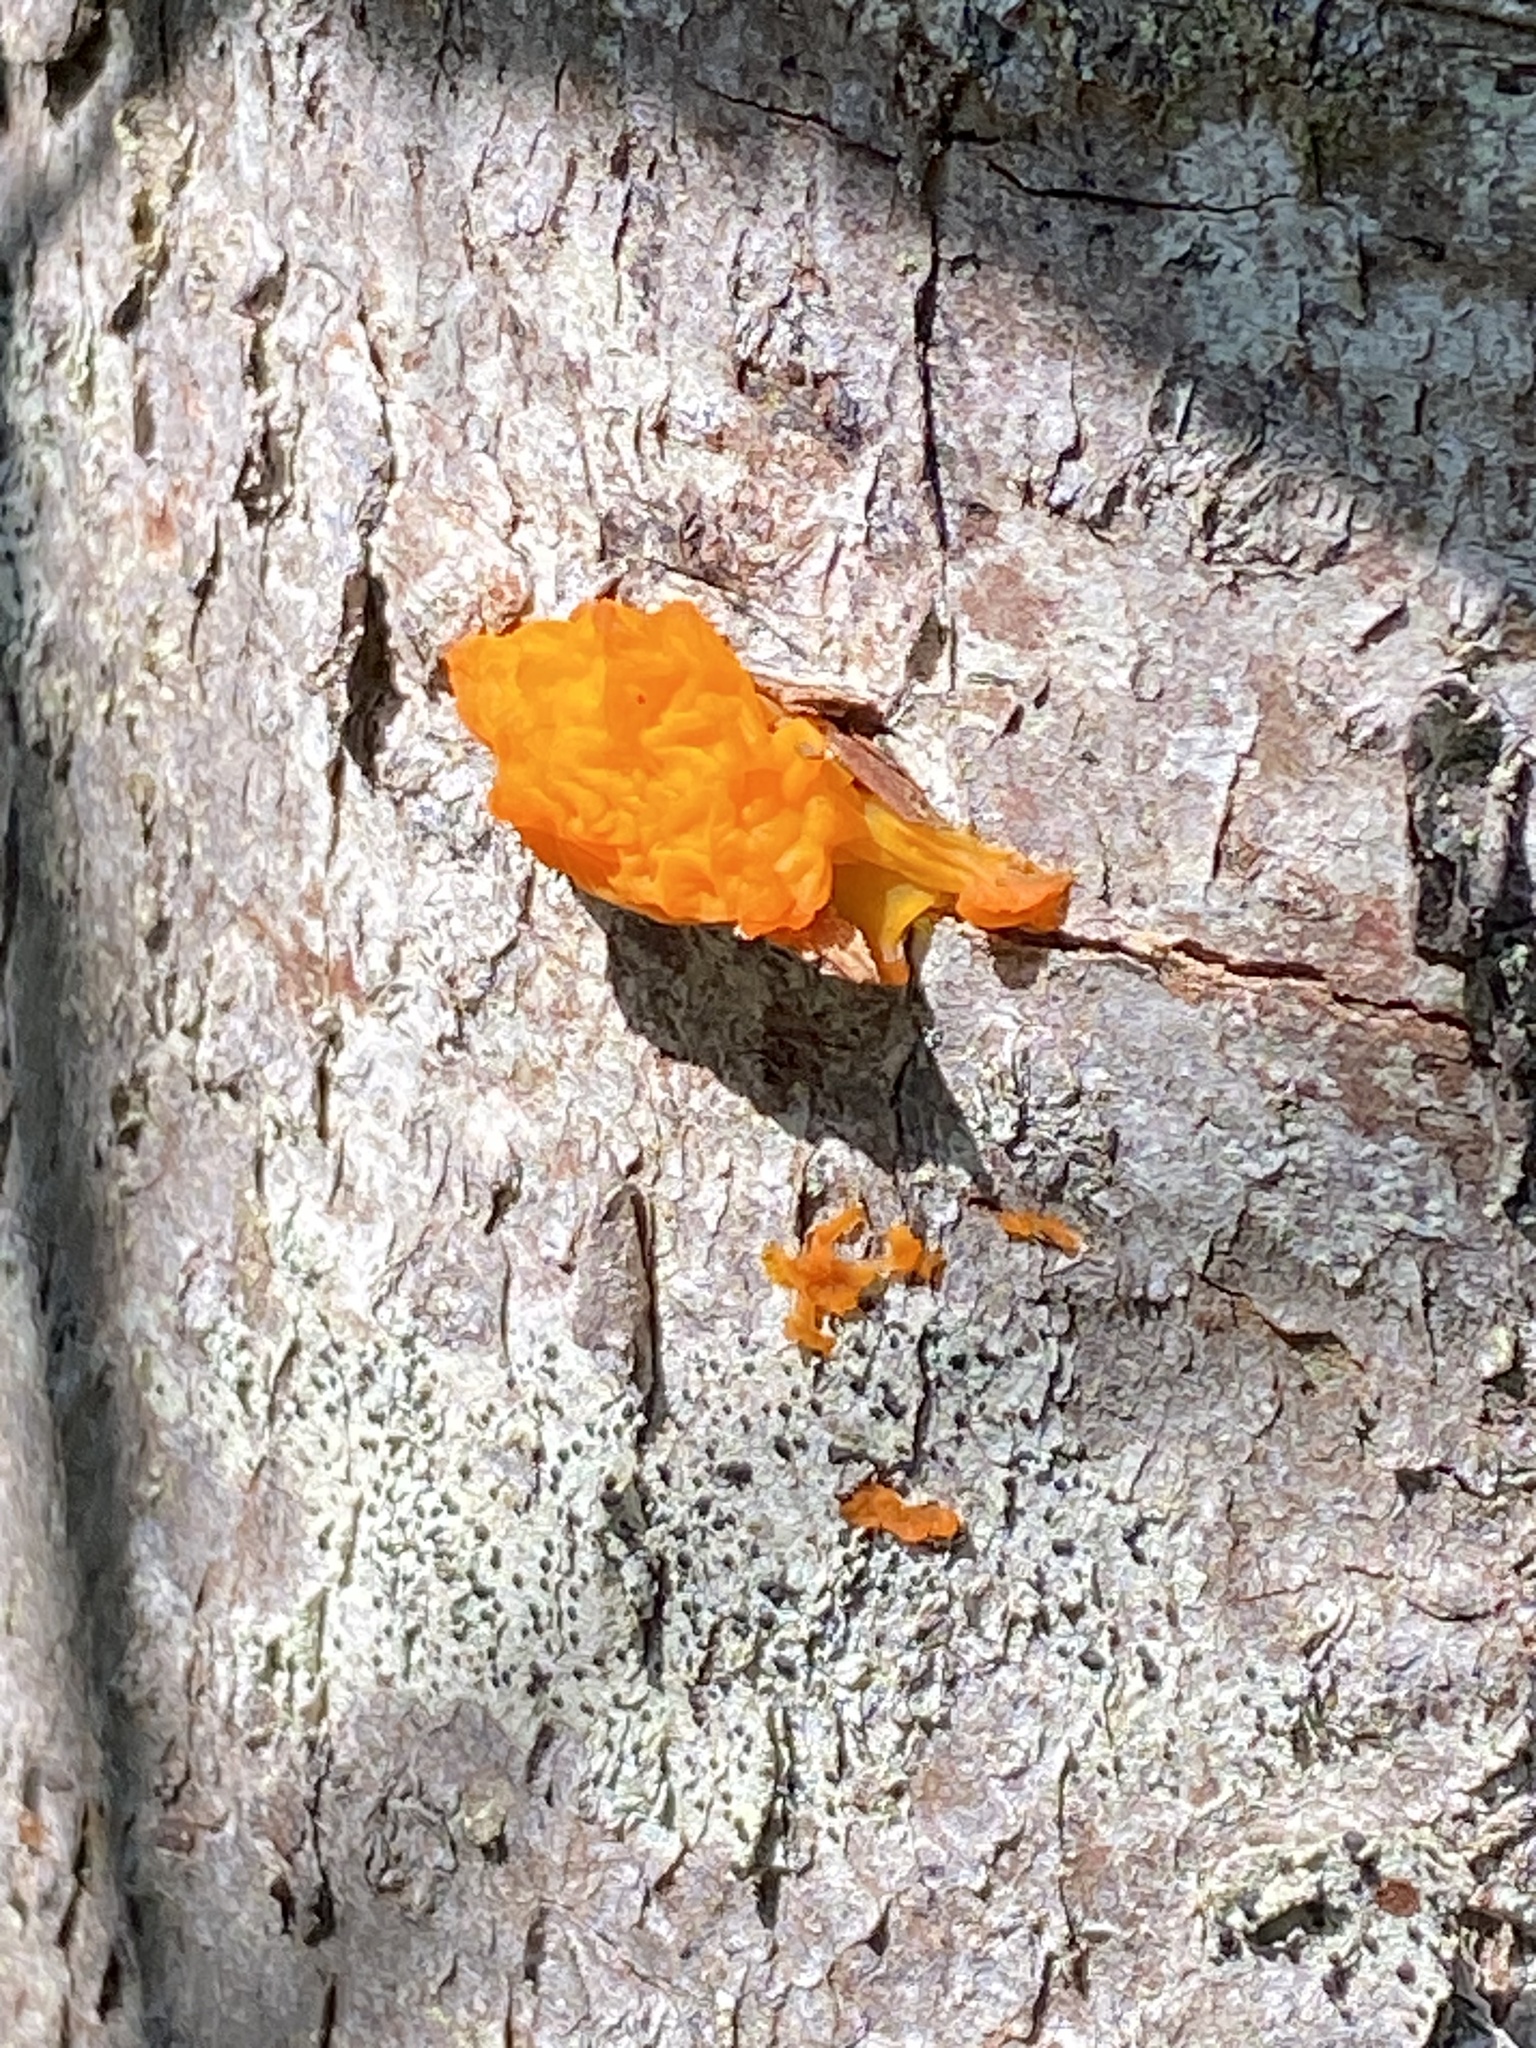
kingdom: Fungi
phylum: Basidiomycota
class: Dacrymycetes
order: Dacrymycetales
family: Dacrymycetaceae
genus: Dacrymyces
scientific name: Dacrymyces chrysospermus
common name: Orange jelly spot
